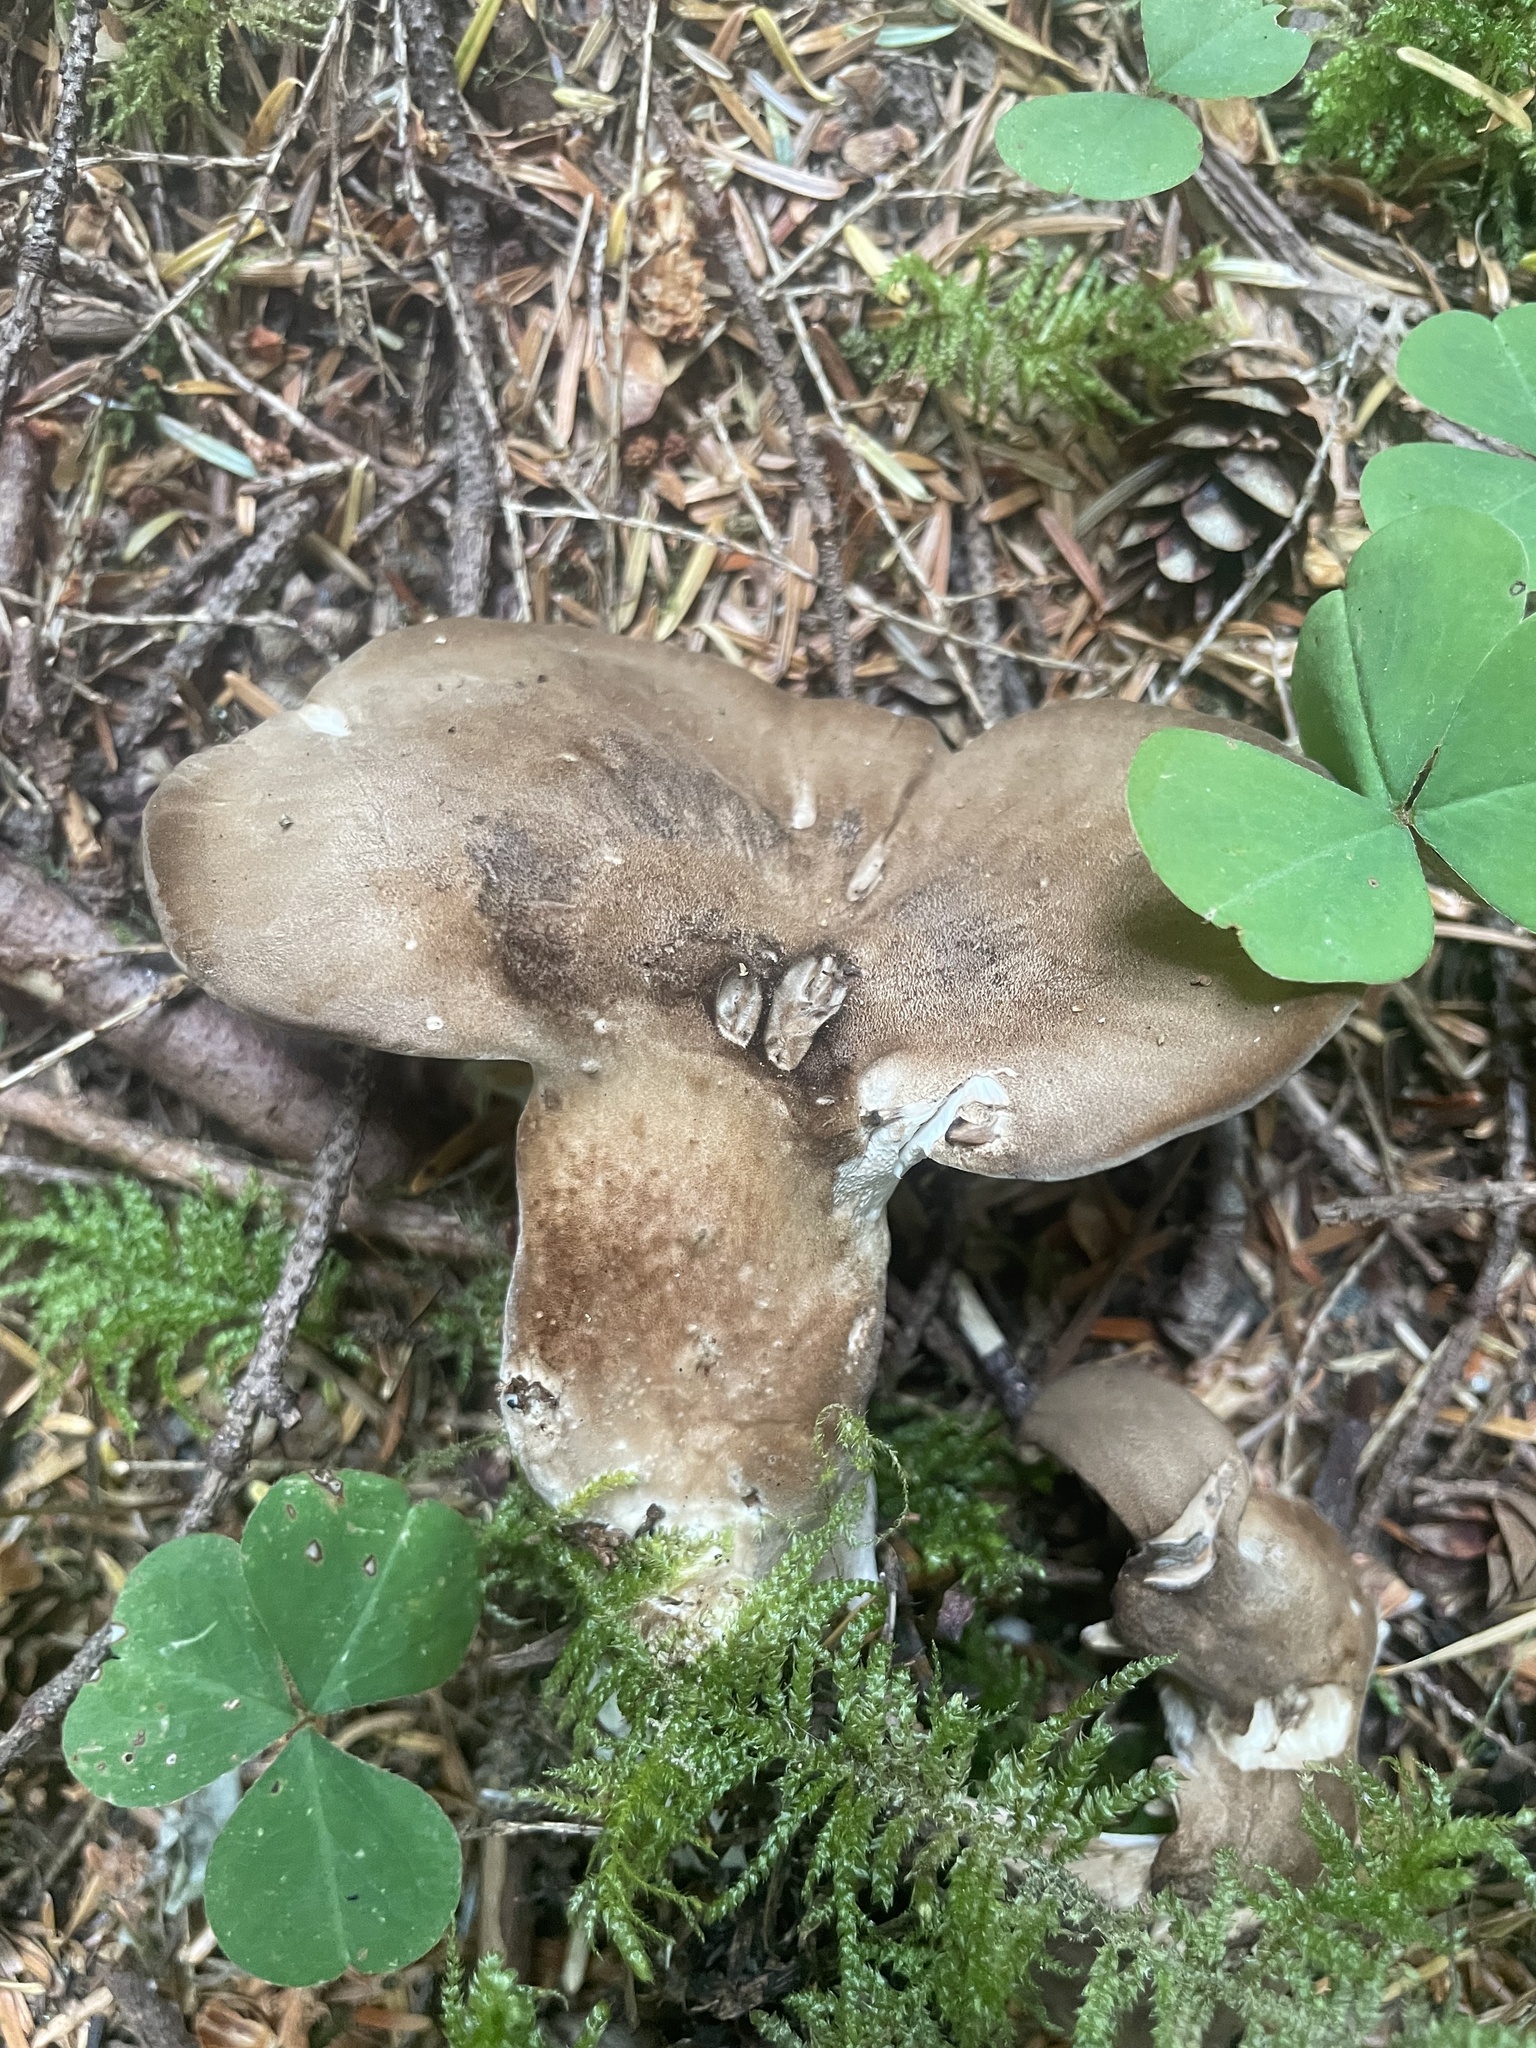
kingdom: Fungi
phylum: Basidiomycota
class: Agaricomycetes
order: Polyporales
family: Dacryobolaceae
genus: Jahnoporus
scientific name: Jahnoporus hirtus
